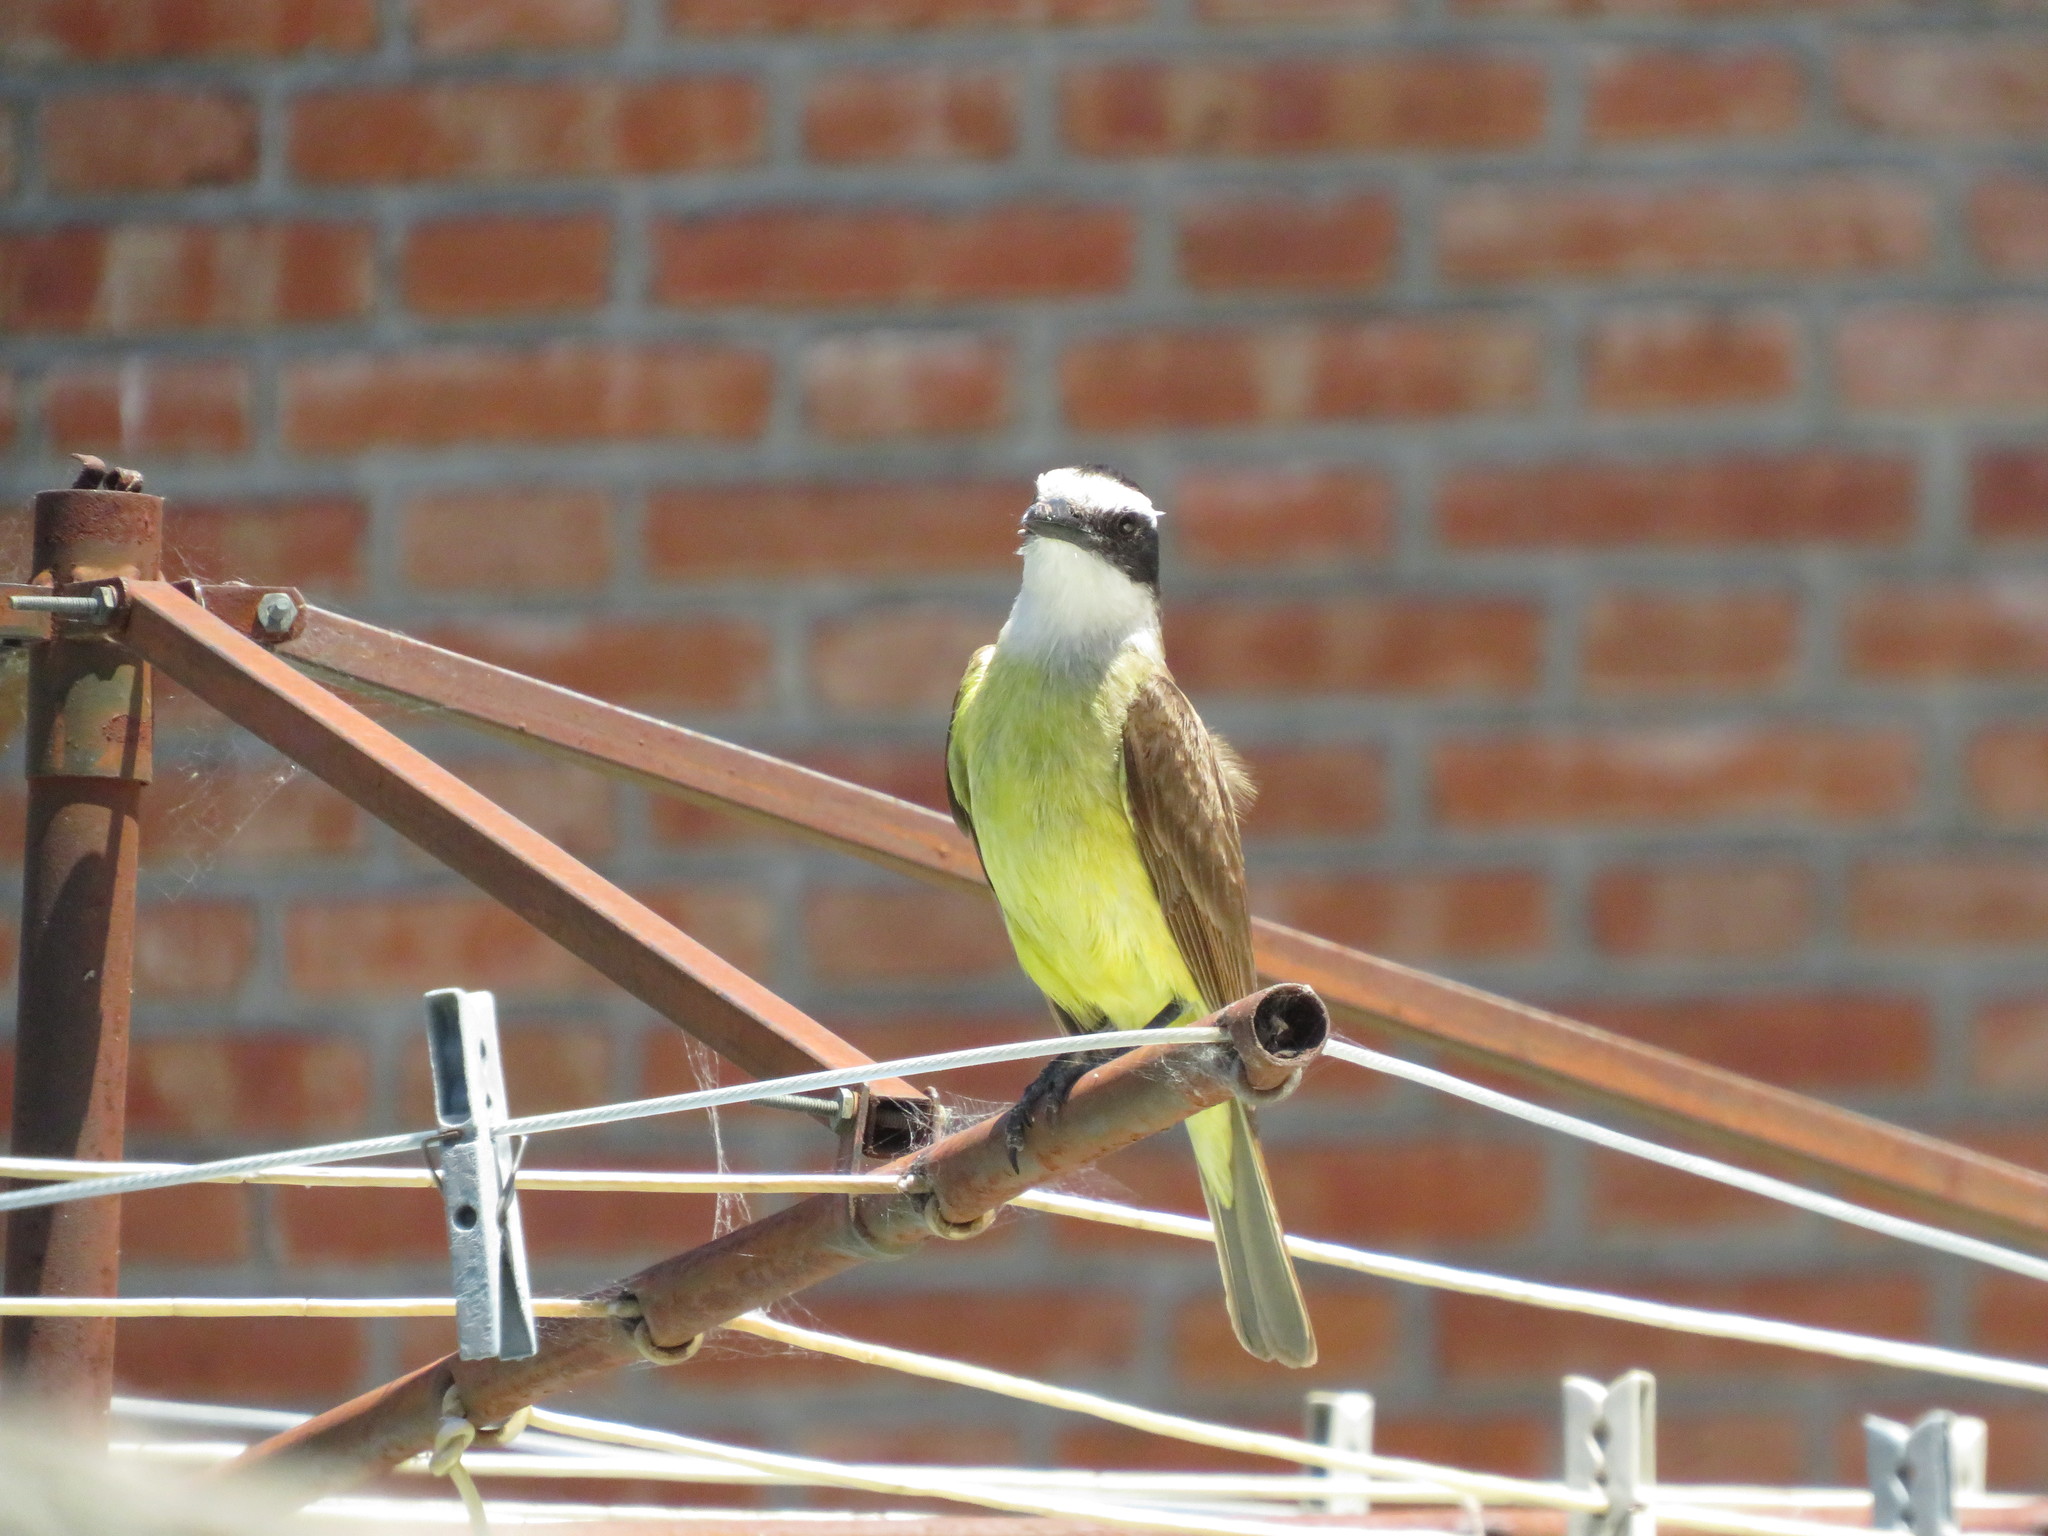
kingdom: Animalia
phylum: Chordata
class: Aves
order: Passeriformes
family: Tyrannidae
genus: Pitangus
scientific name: Pitangus sulphuratus
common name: Great kiskadee
